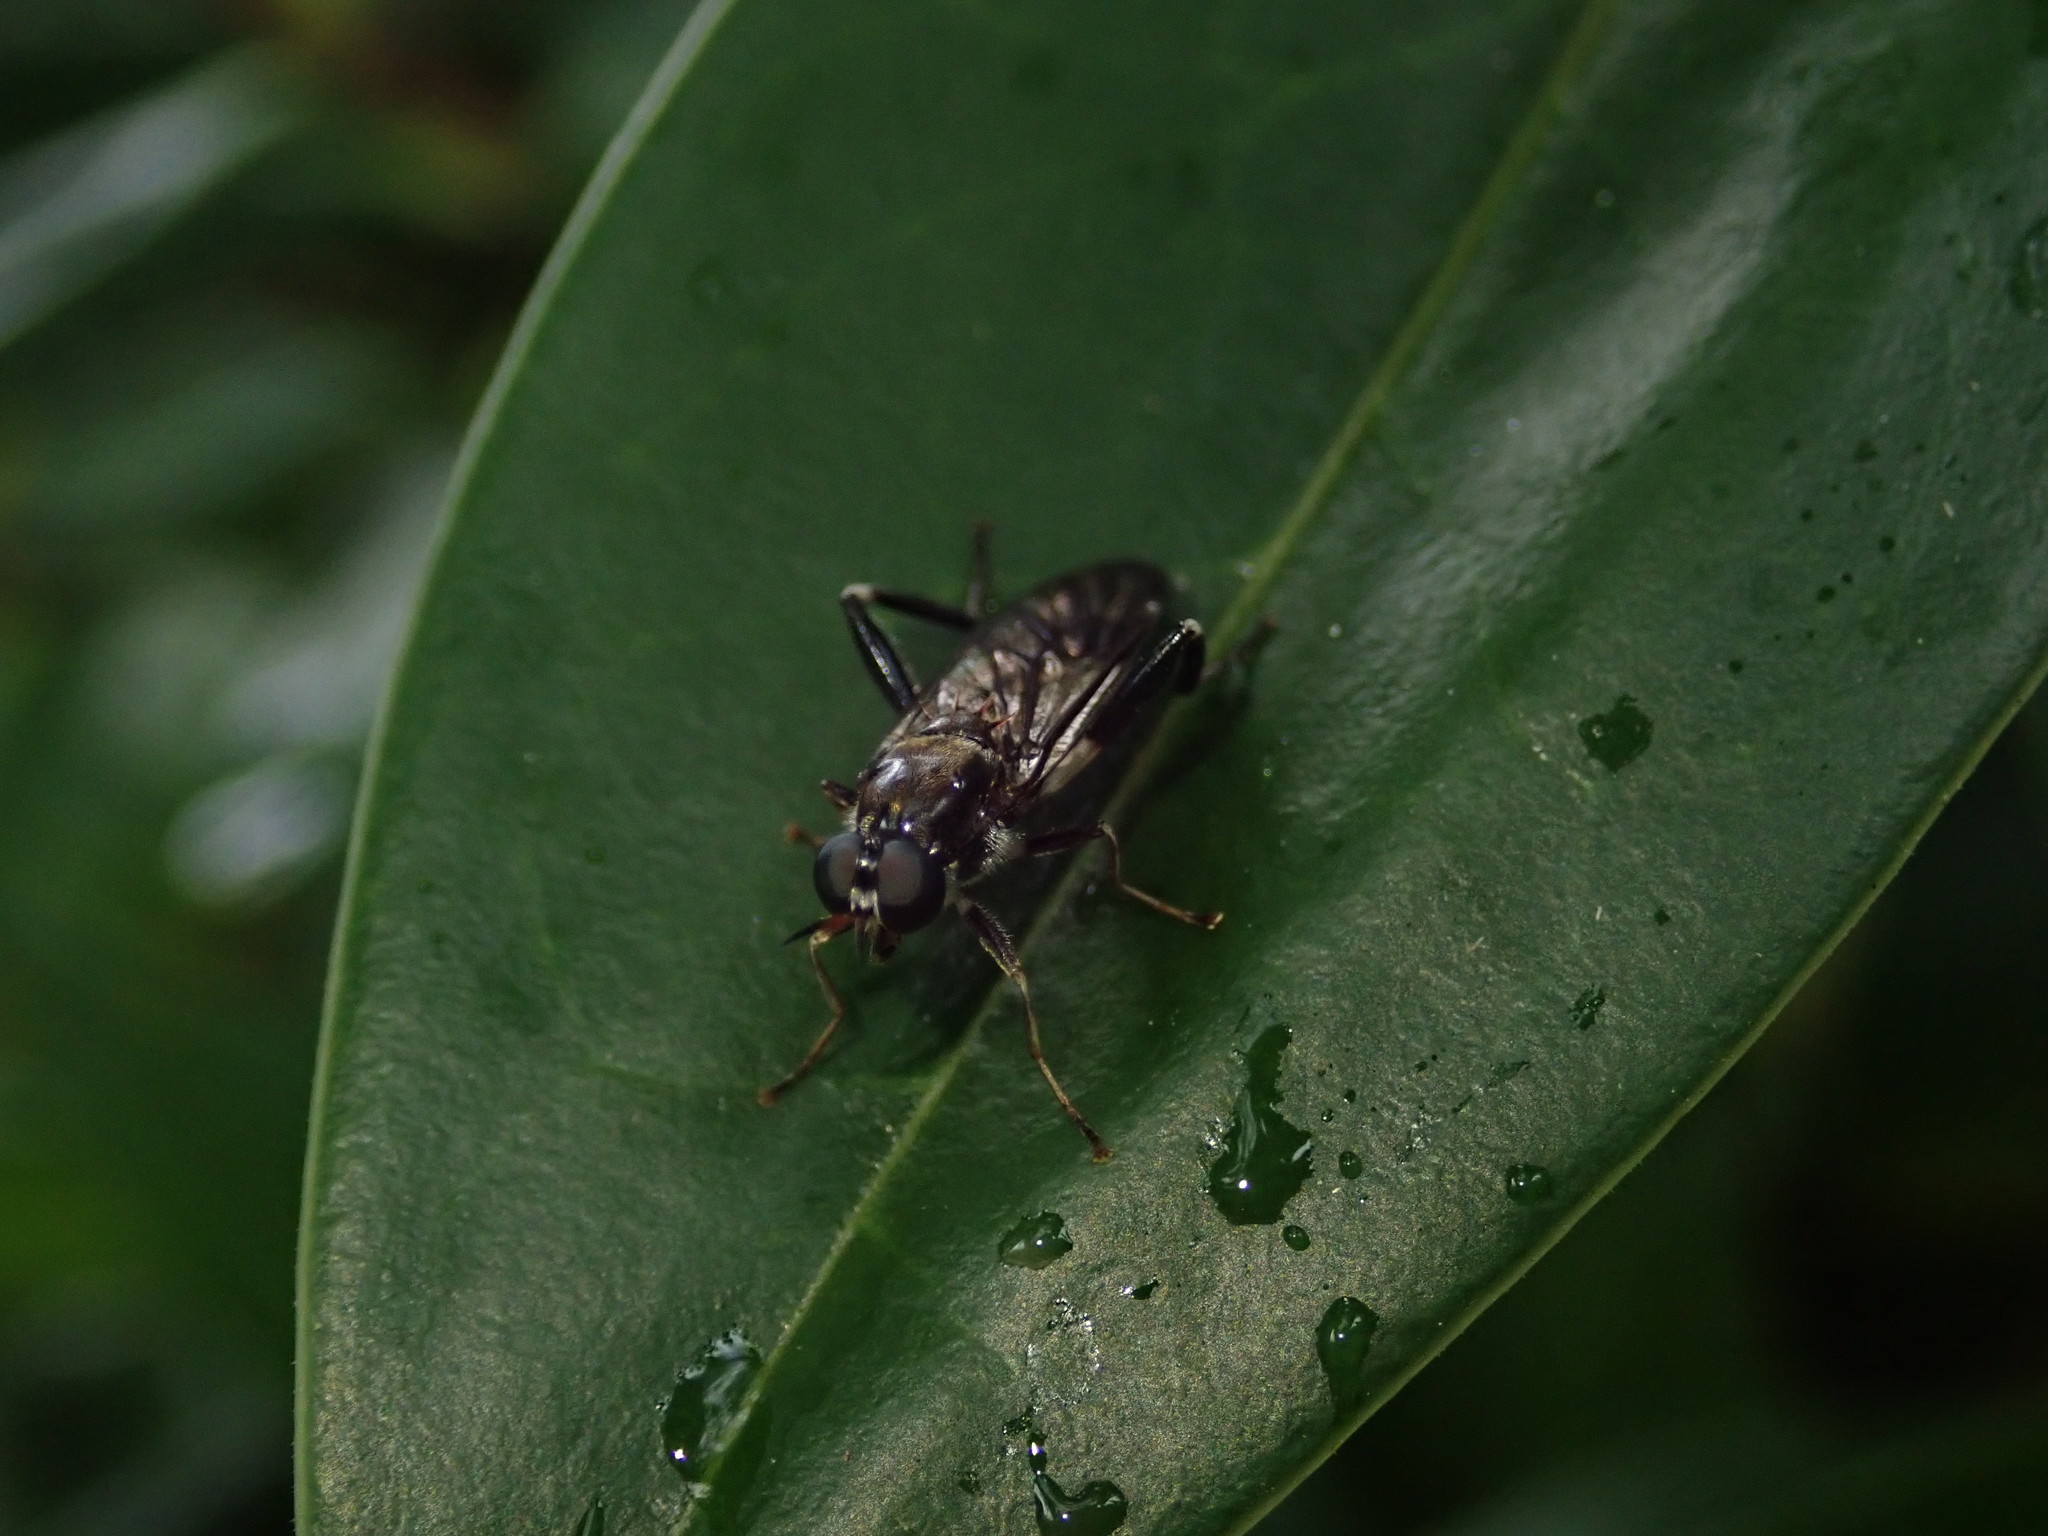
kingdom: Animalia
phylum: Arthropoda
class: Insecta
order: Diptera
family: Stratiomyidae
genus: Exaireta
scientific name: Exaireta spinigera
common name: Blue soldier fly
